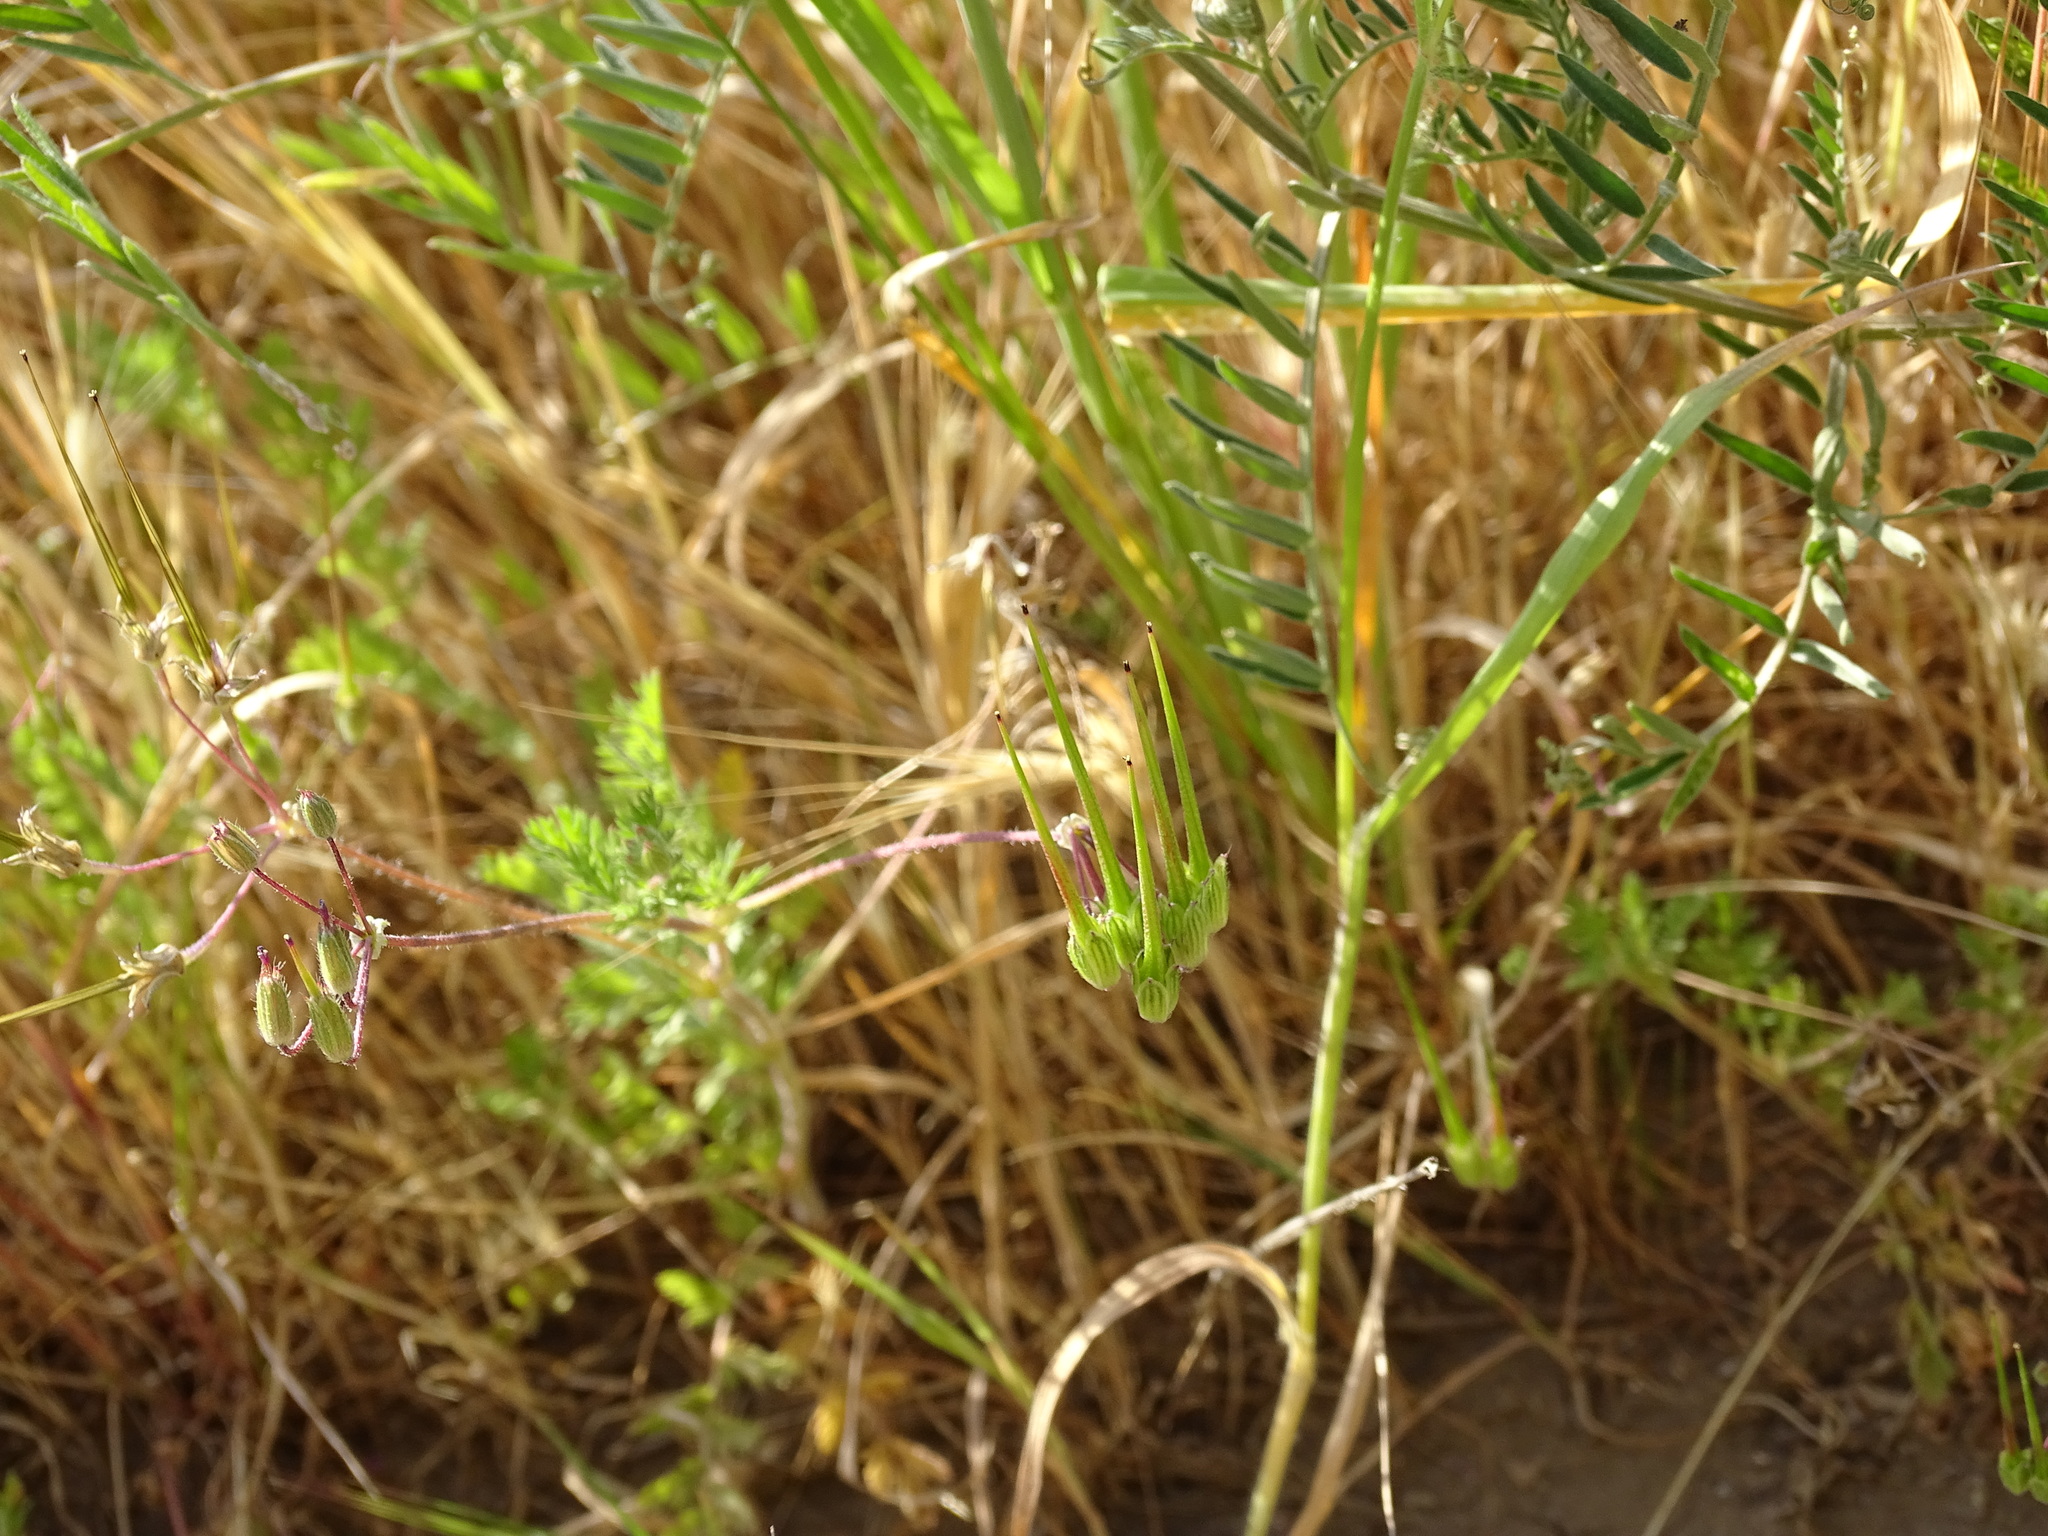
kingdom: Plantae
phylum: Tracheophyta
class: Magnoliopsida
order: Geraniales
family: Geraniaceae
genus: Erodium
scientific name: Erodium cicutarium
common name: Common stork's-bill
